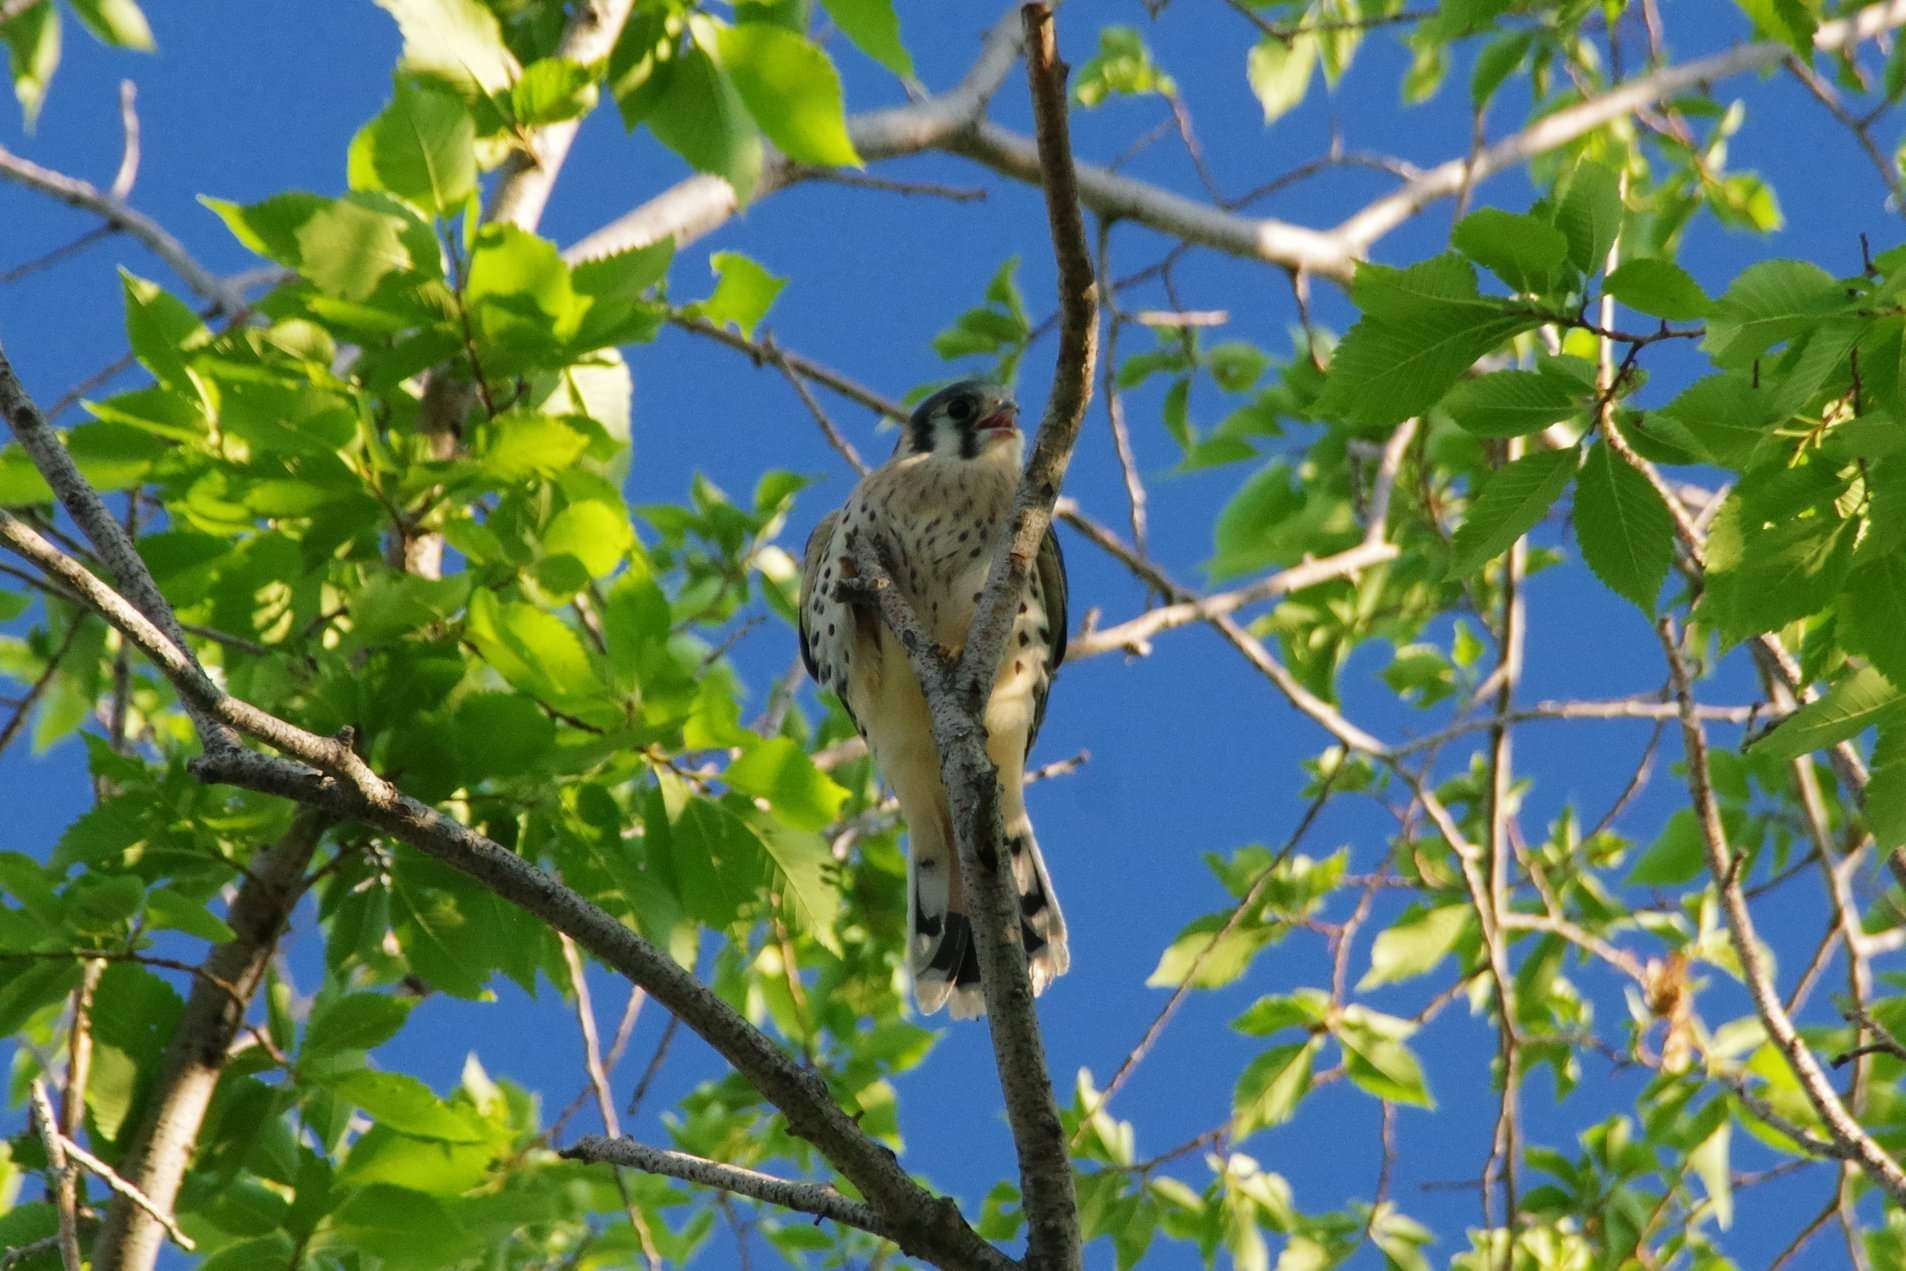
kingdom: Animalia
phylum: Chordata
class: Aves
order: Falconiformes
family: Falconidae
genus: Falco
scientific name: Falco sparverius
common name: American kestrel
